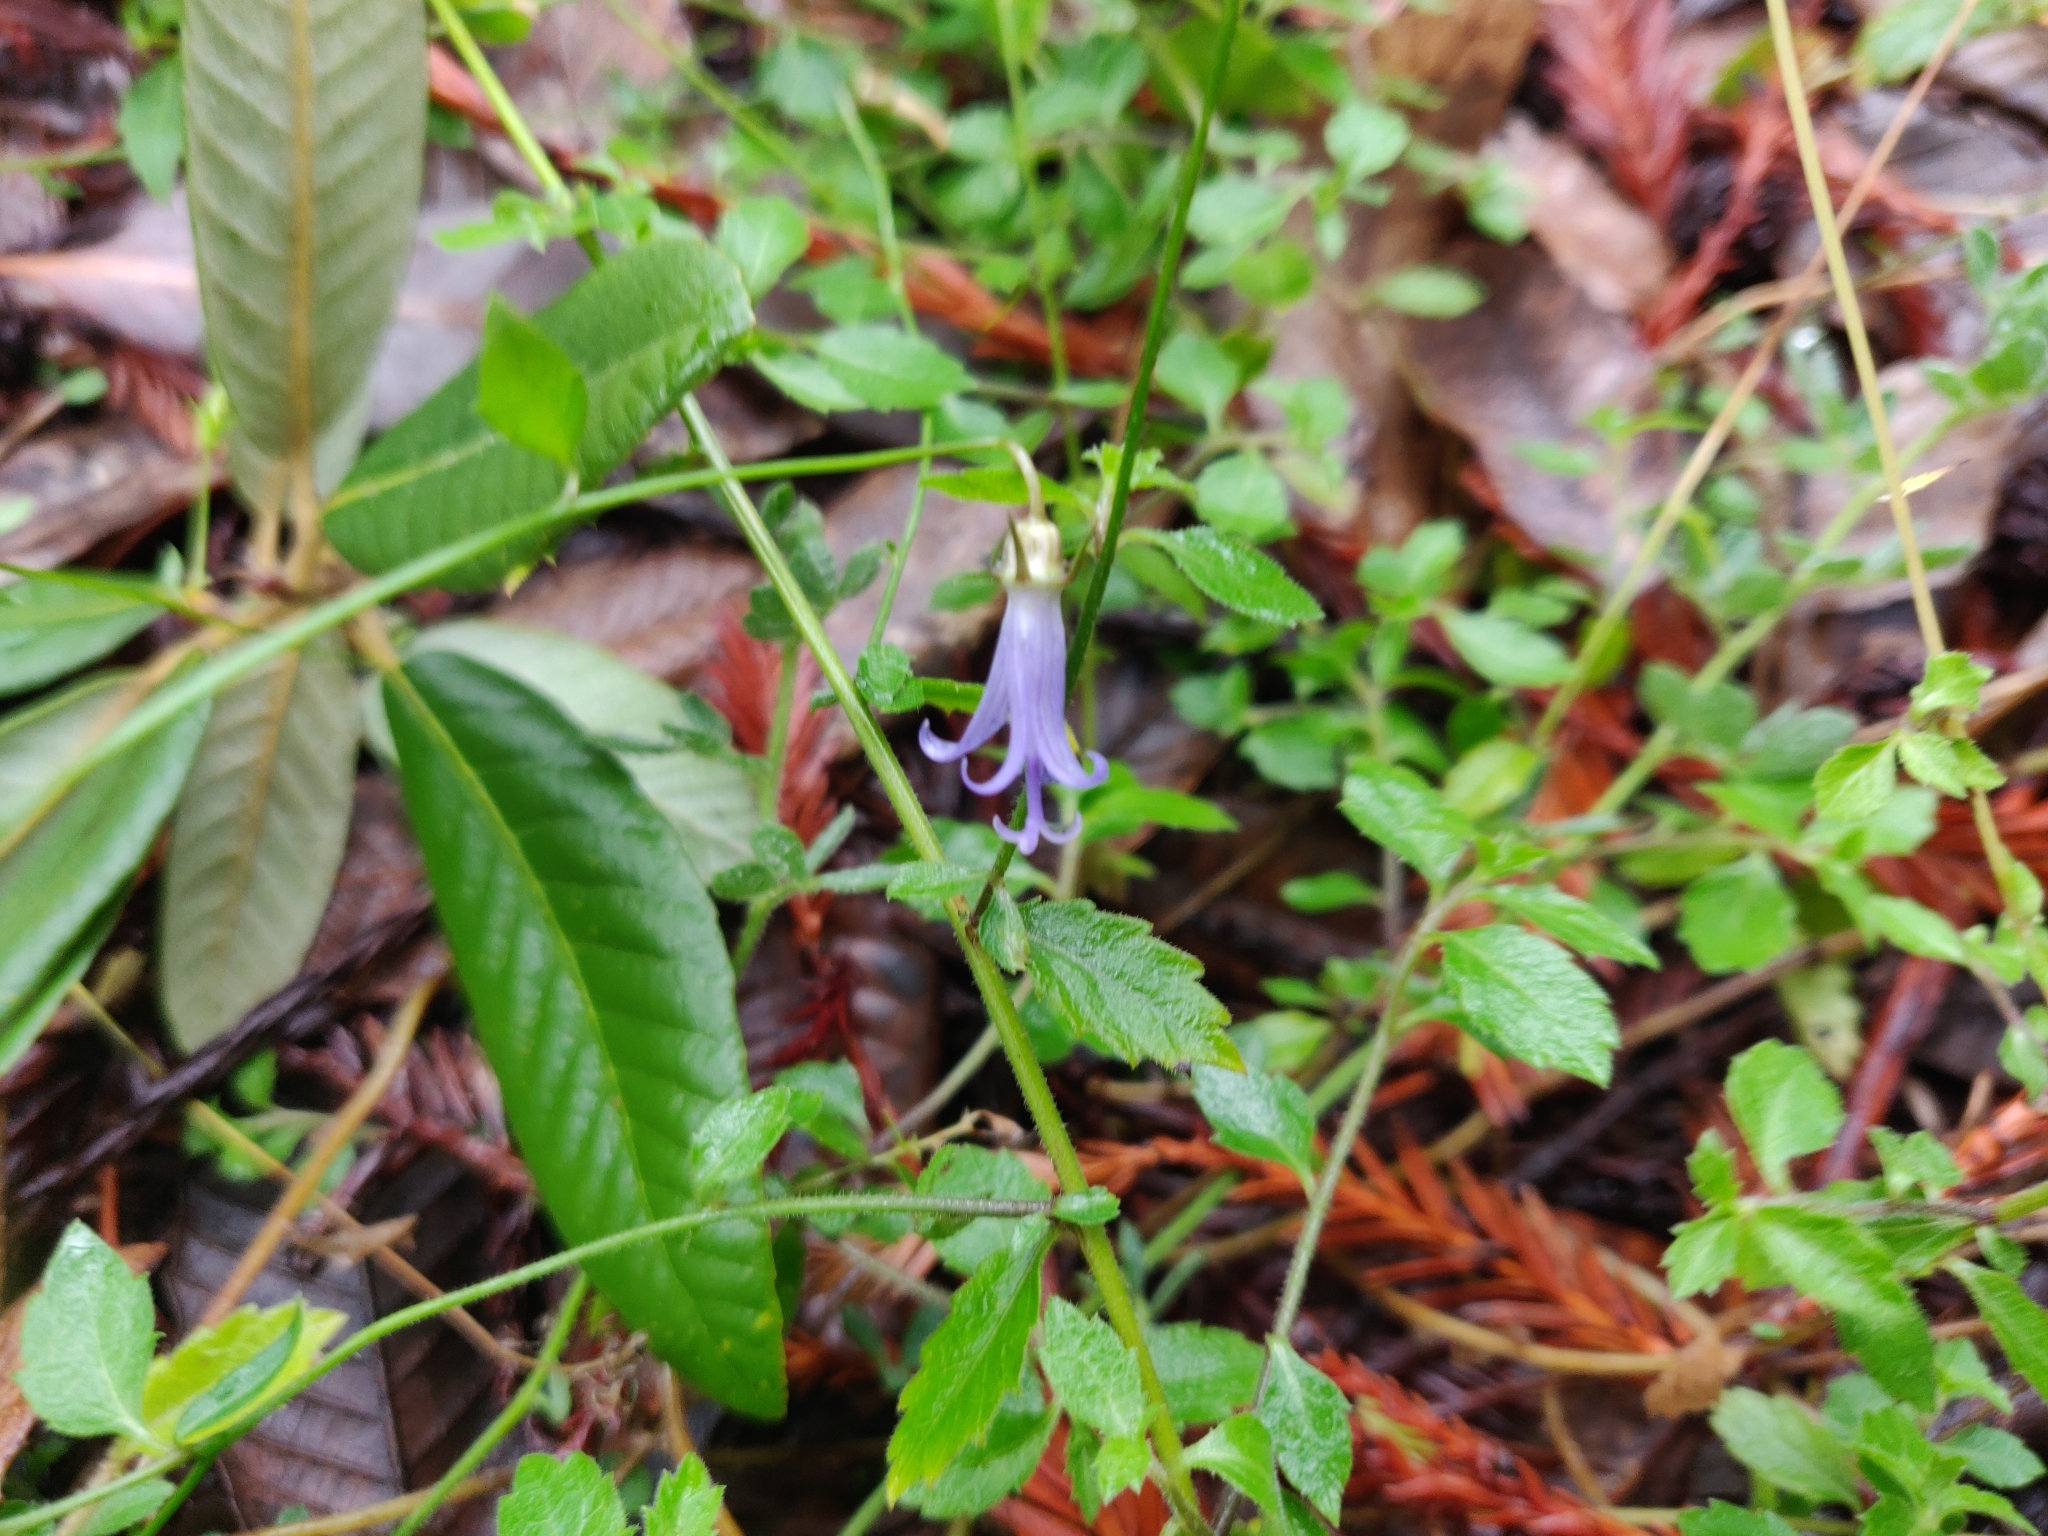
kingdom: Plantae
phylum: Tracheophyta
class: Magnoliopsida
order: Asterales
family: Campanulaceae
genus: Smithiastrum
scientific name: Smithiastrum prenanthoides
